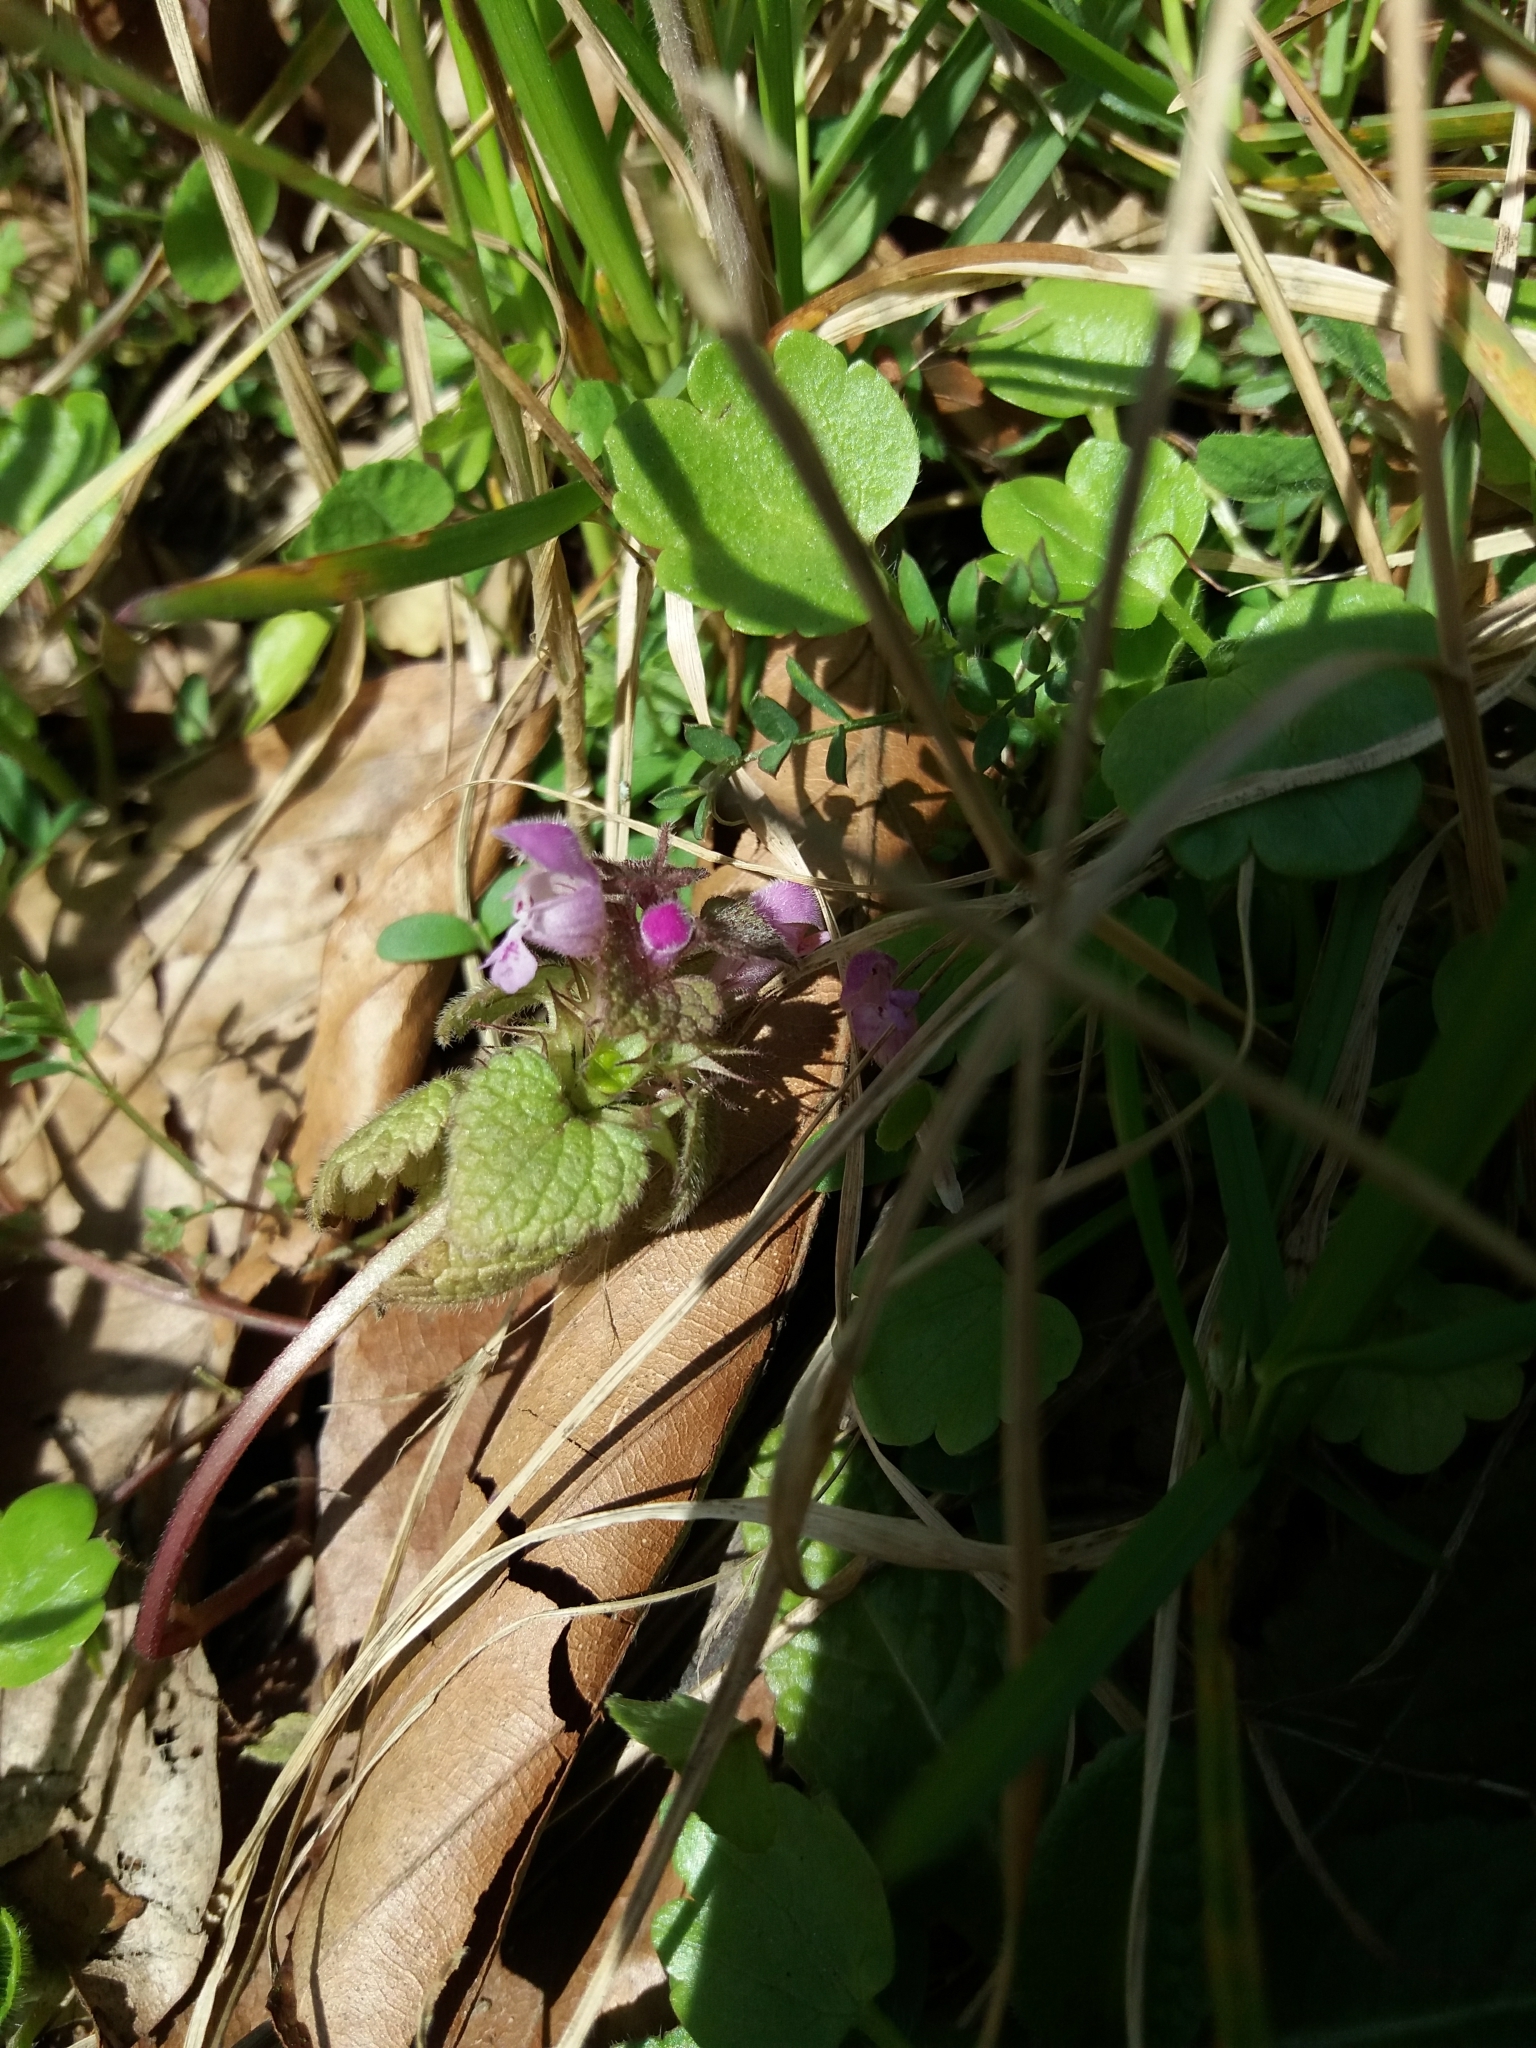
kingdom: Plantae
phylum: Tracheophyta
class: Magnoliopsida
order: Lamiales
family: Lamiaceae
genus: Lamium
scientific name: Lamium purpureum
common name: Red dead-nettle
